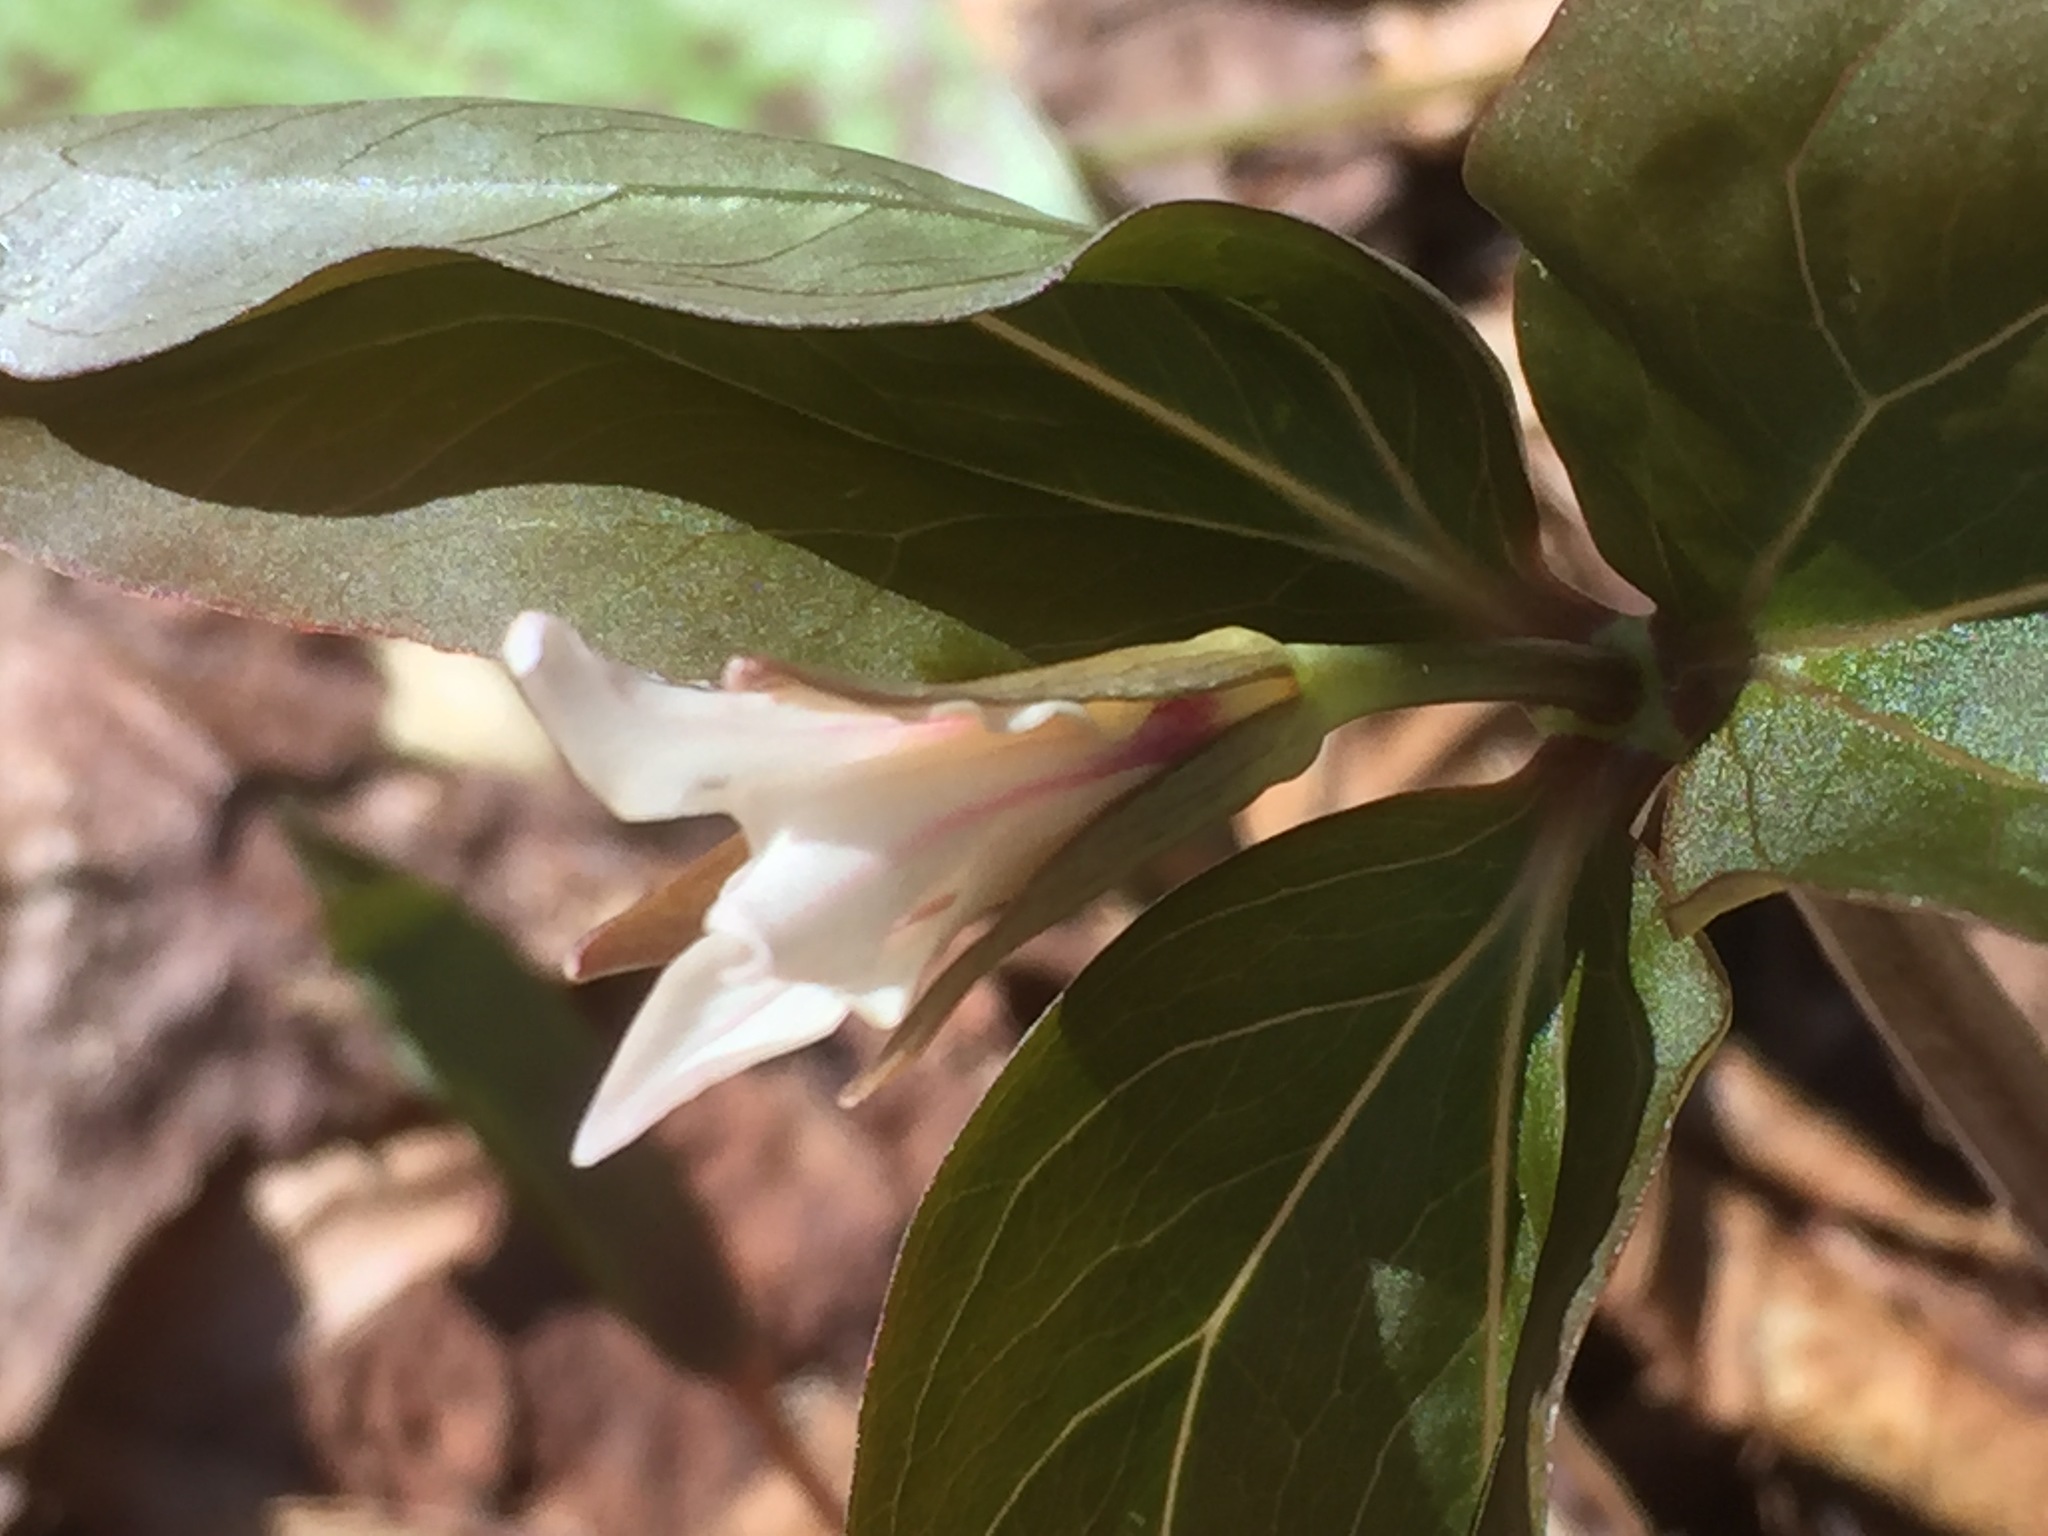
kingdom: Plantae
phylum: Tracheophyta
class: Liliopsida
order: Liliales
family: Melanthiaceae
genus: Trillium
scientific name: Trillium undulatum
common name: Paint trillium
